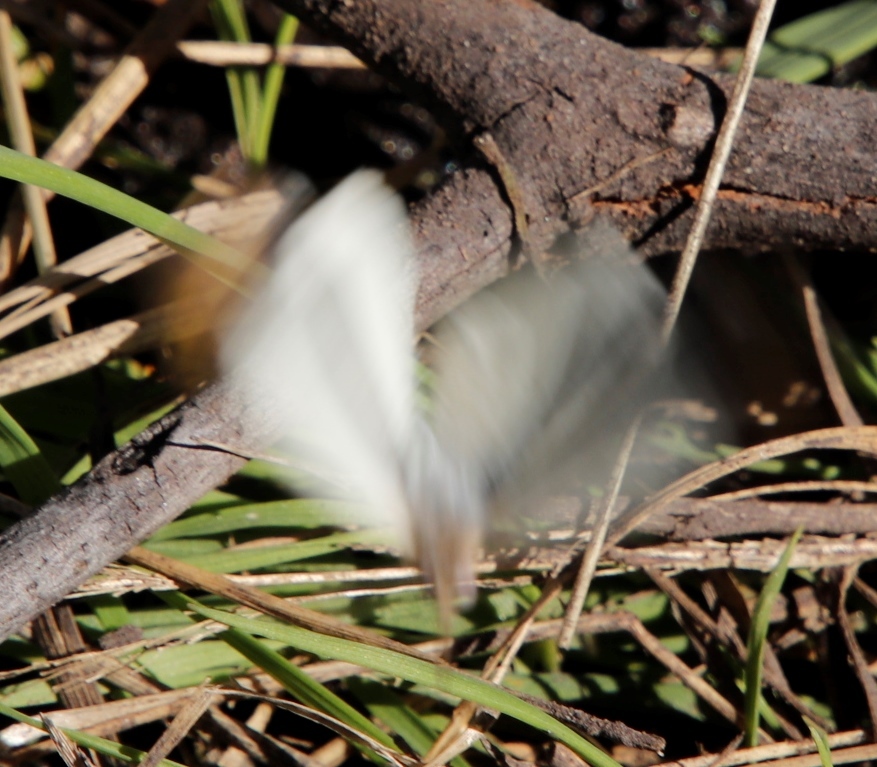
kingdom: Animalia
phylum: Arthropoda
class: Insecta
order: Lepidoptera
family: Pieridae
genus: Colotis
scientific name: Colotis eris
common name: Banded gold tip
